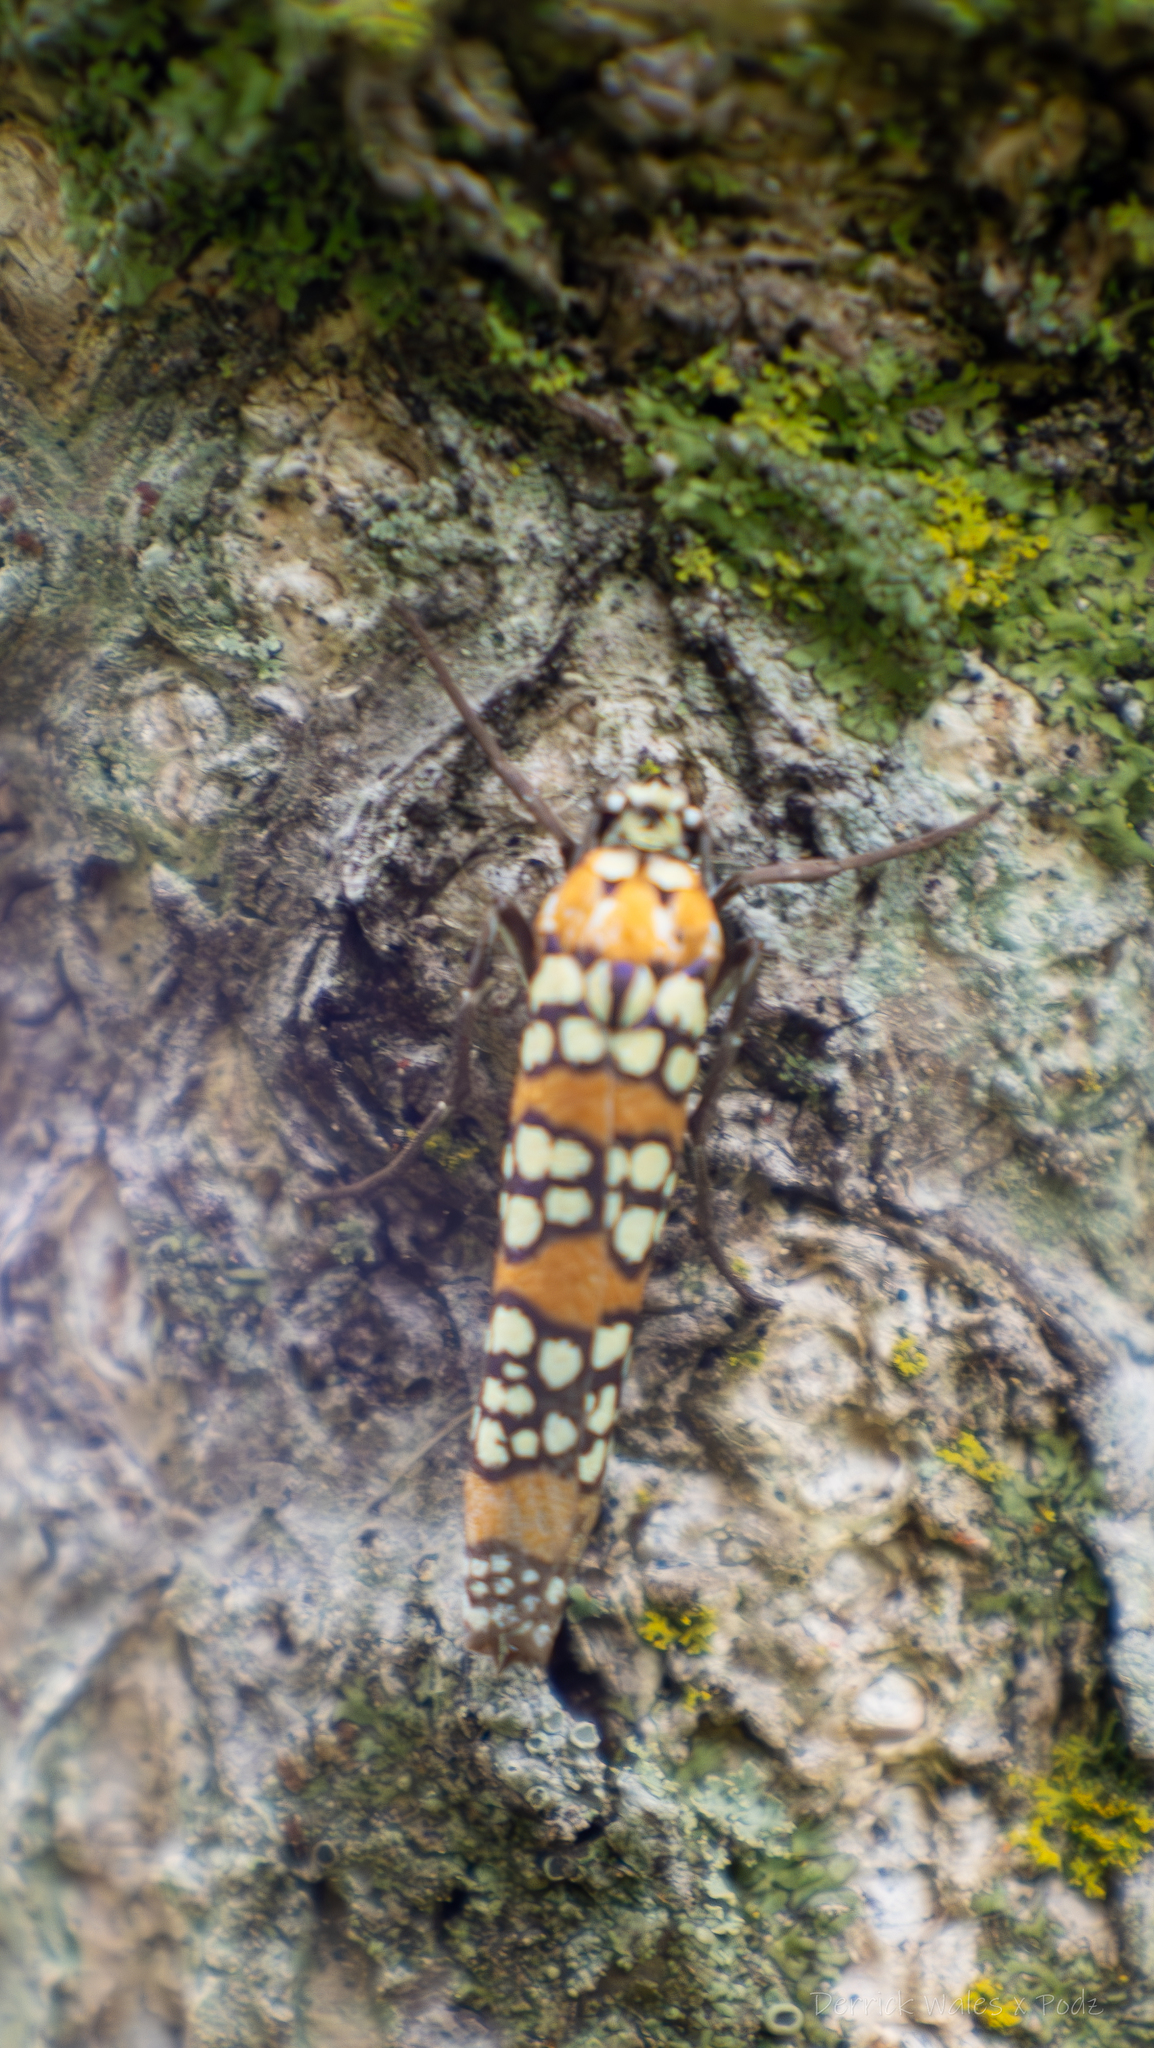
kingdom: Animalia
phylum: Arthropoda
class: Insecta
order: Lepidoptera
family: Attevidae
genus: Atteva
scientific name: Atteva punctella
